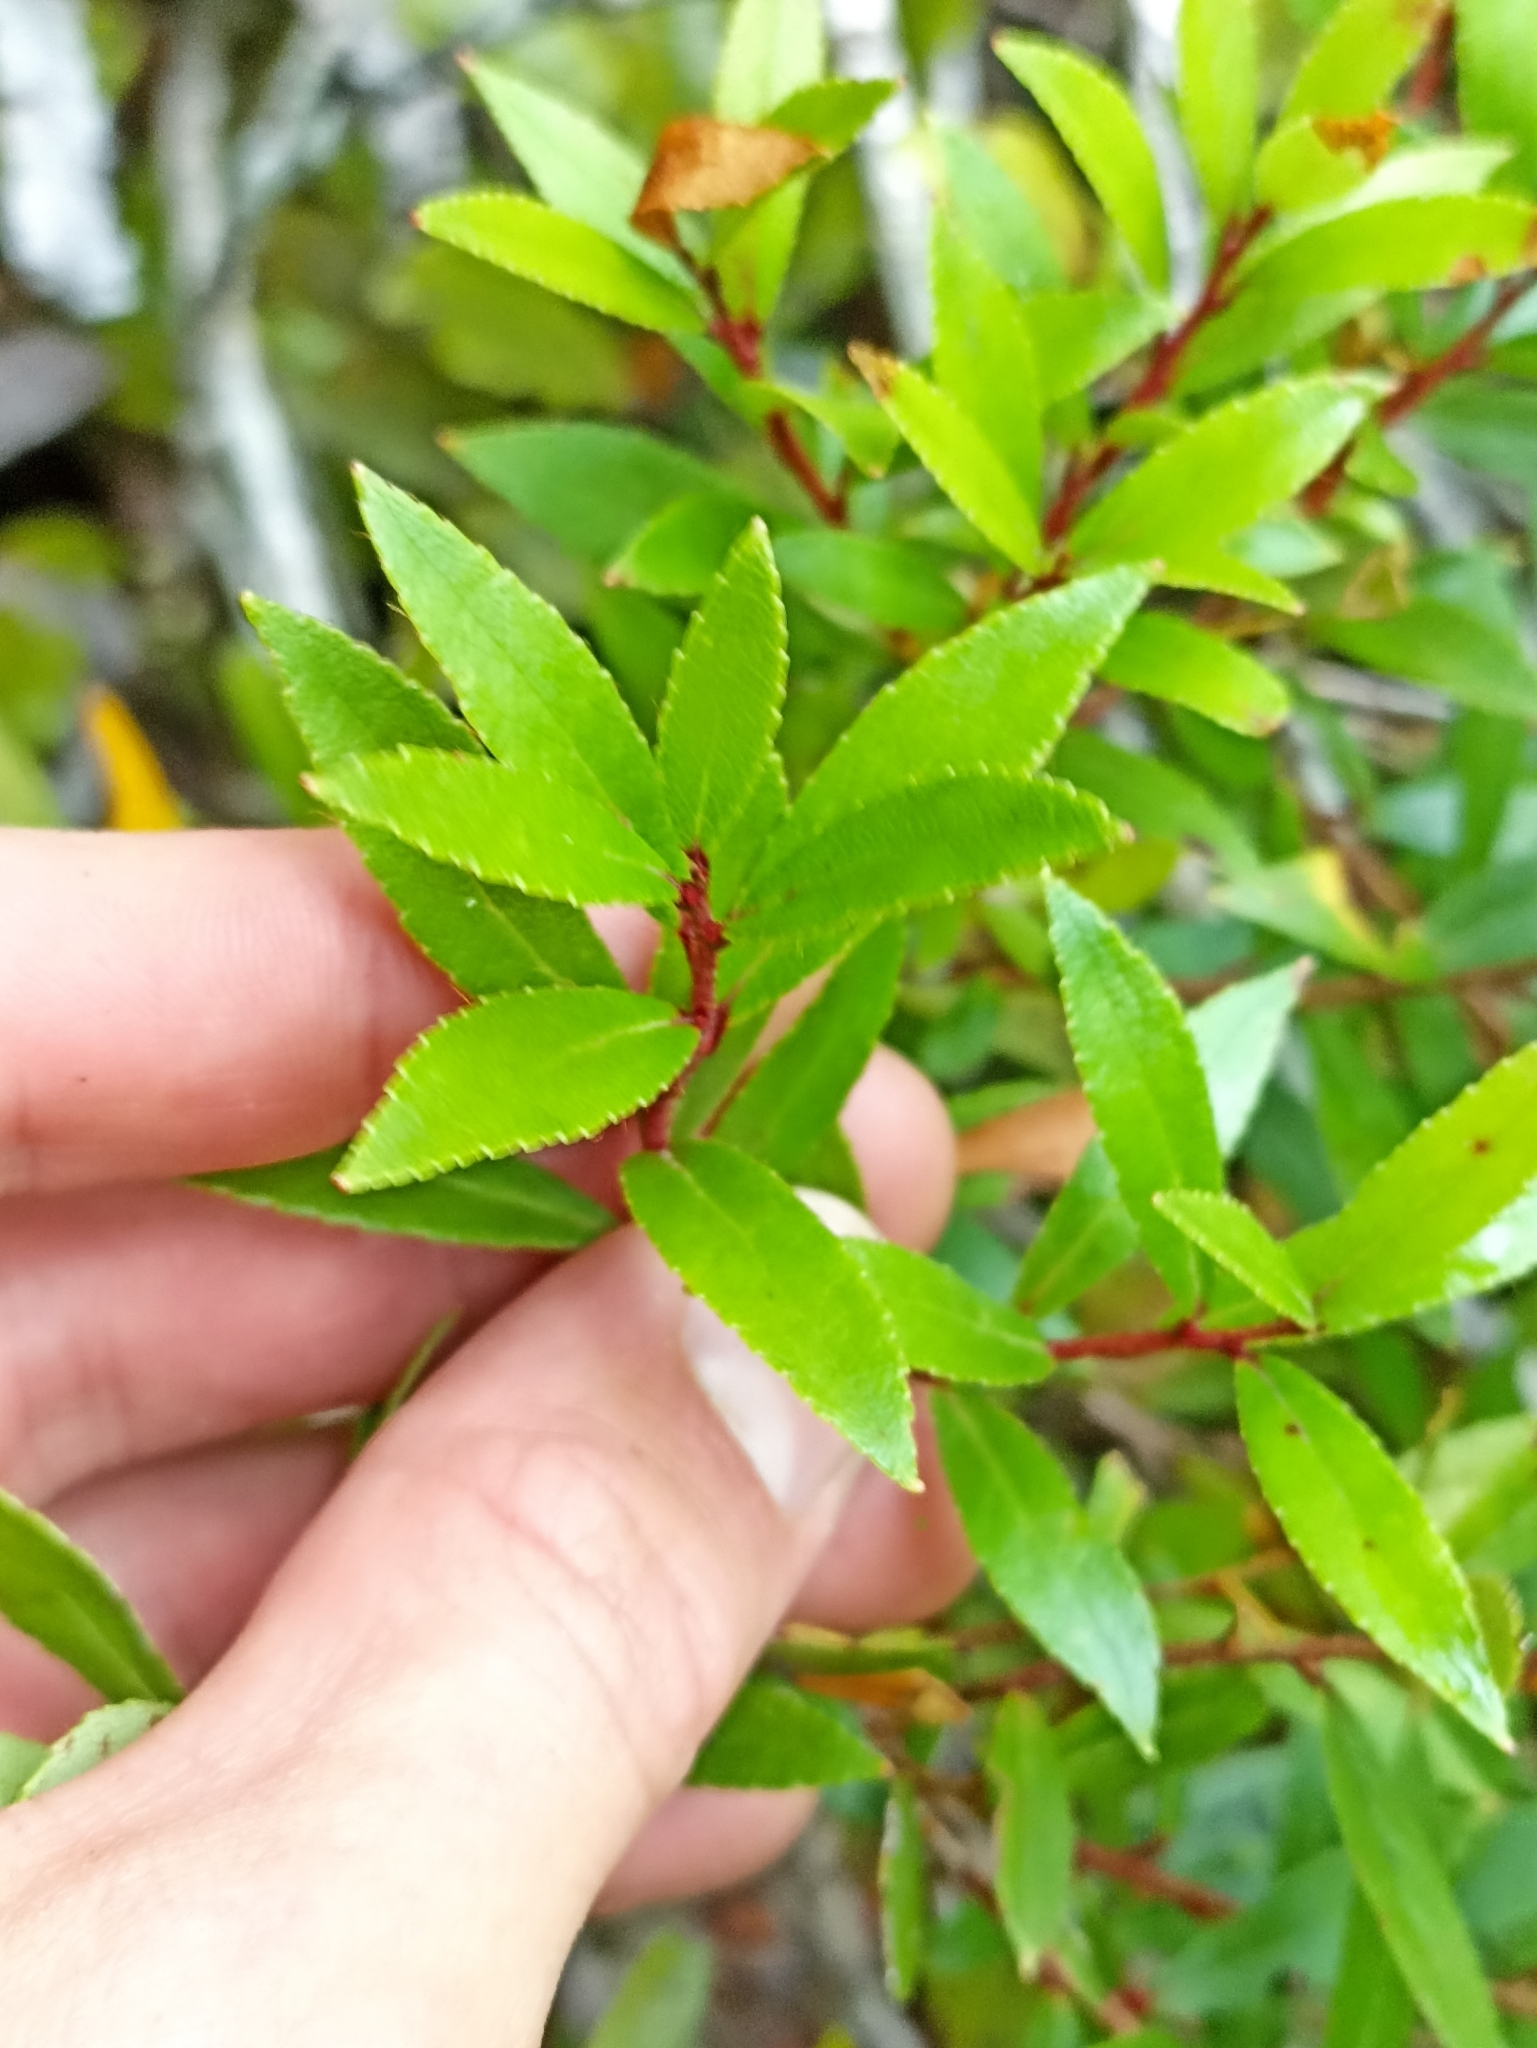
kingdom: Plantae
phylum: Tracheophyta
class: Magnoliopsida
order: Ericales
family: Ericaceae
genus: Gaultheria
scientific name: Gaultheria rupestris
